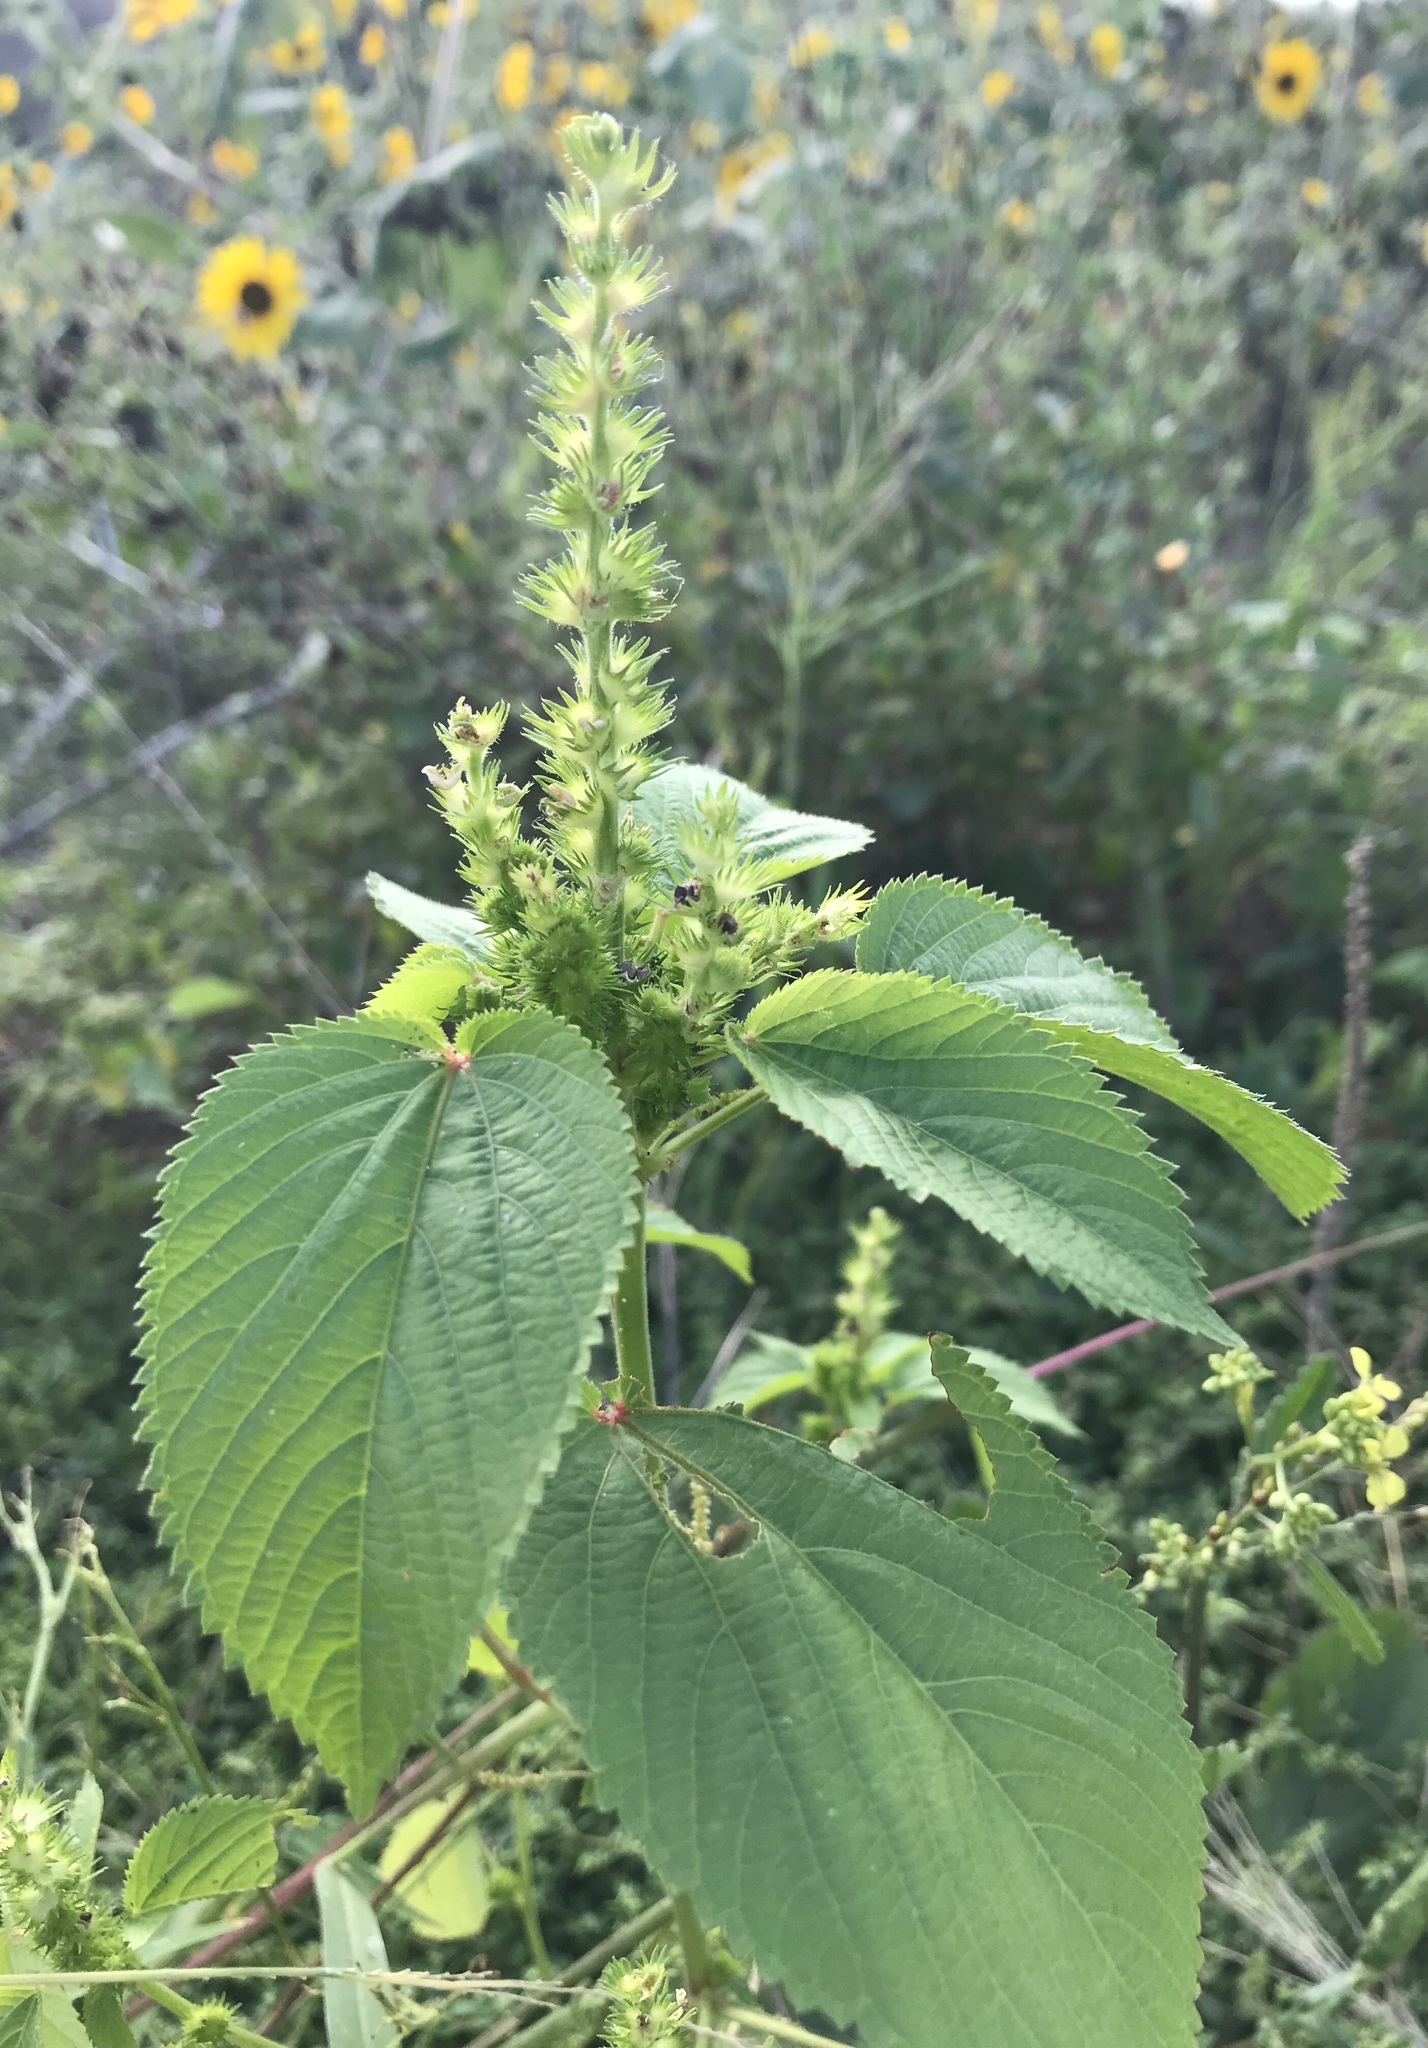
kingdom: Plantae
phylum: Tracheophyta
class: Magnoliopsida
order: Rosales
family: Urticaceae
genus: Boehmeria
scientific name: Boehmeria cylindrica
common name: Bog-hemp
